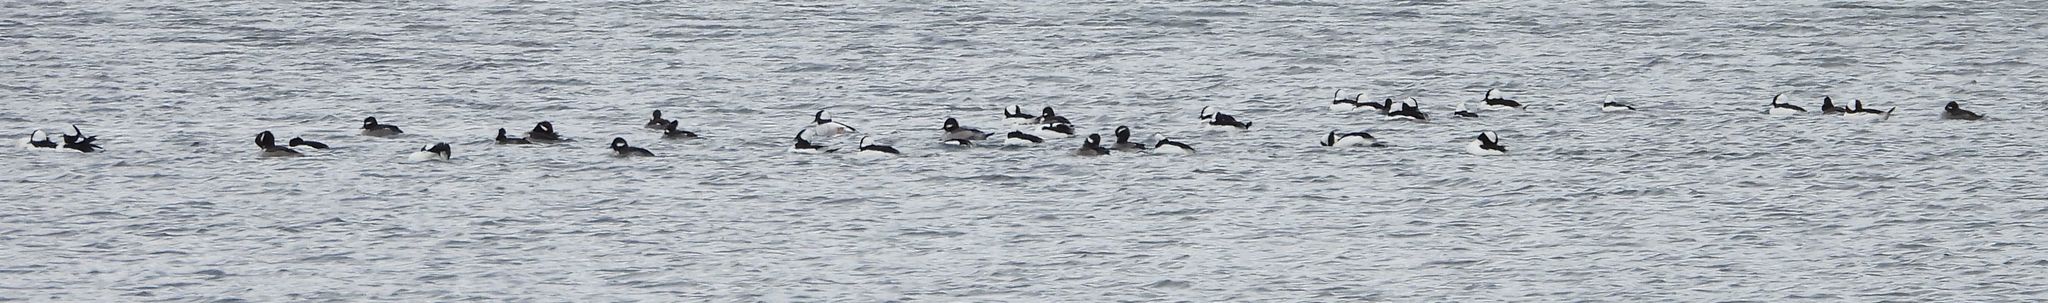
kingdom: Animalia
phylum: Chordata
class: Aves
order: Anseriformes
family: Anatidae
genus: Bucephala
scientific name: Bucephala albeola
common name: Bufflehead
